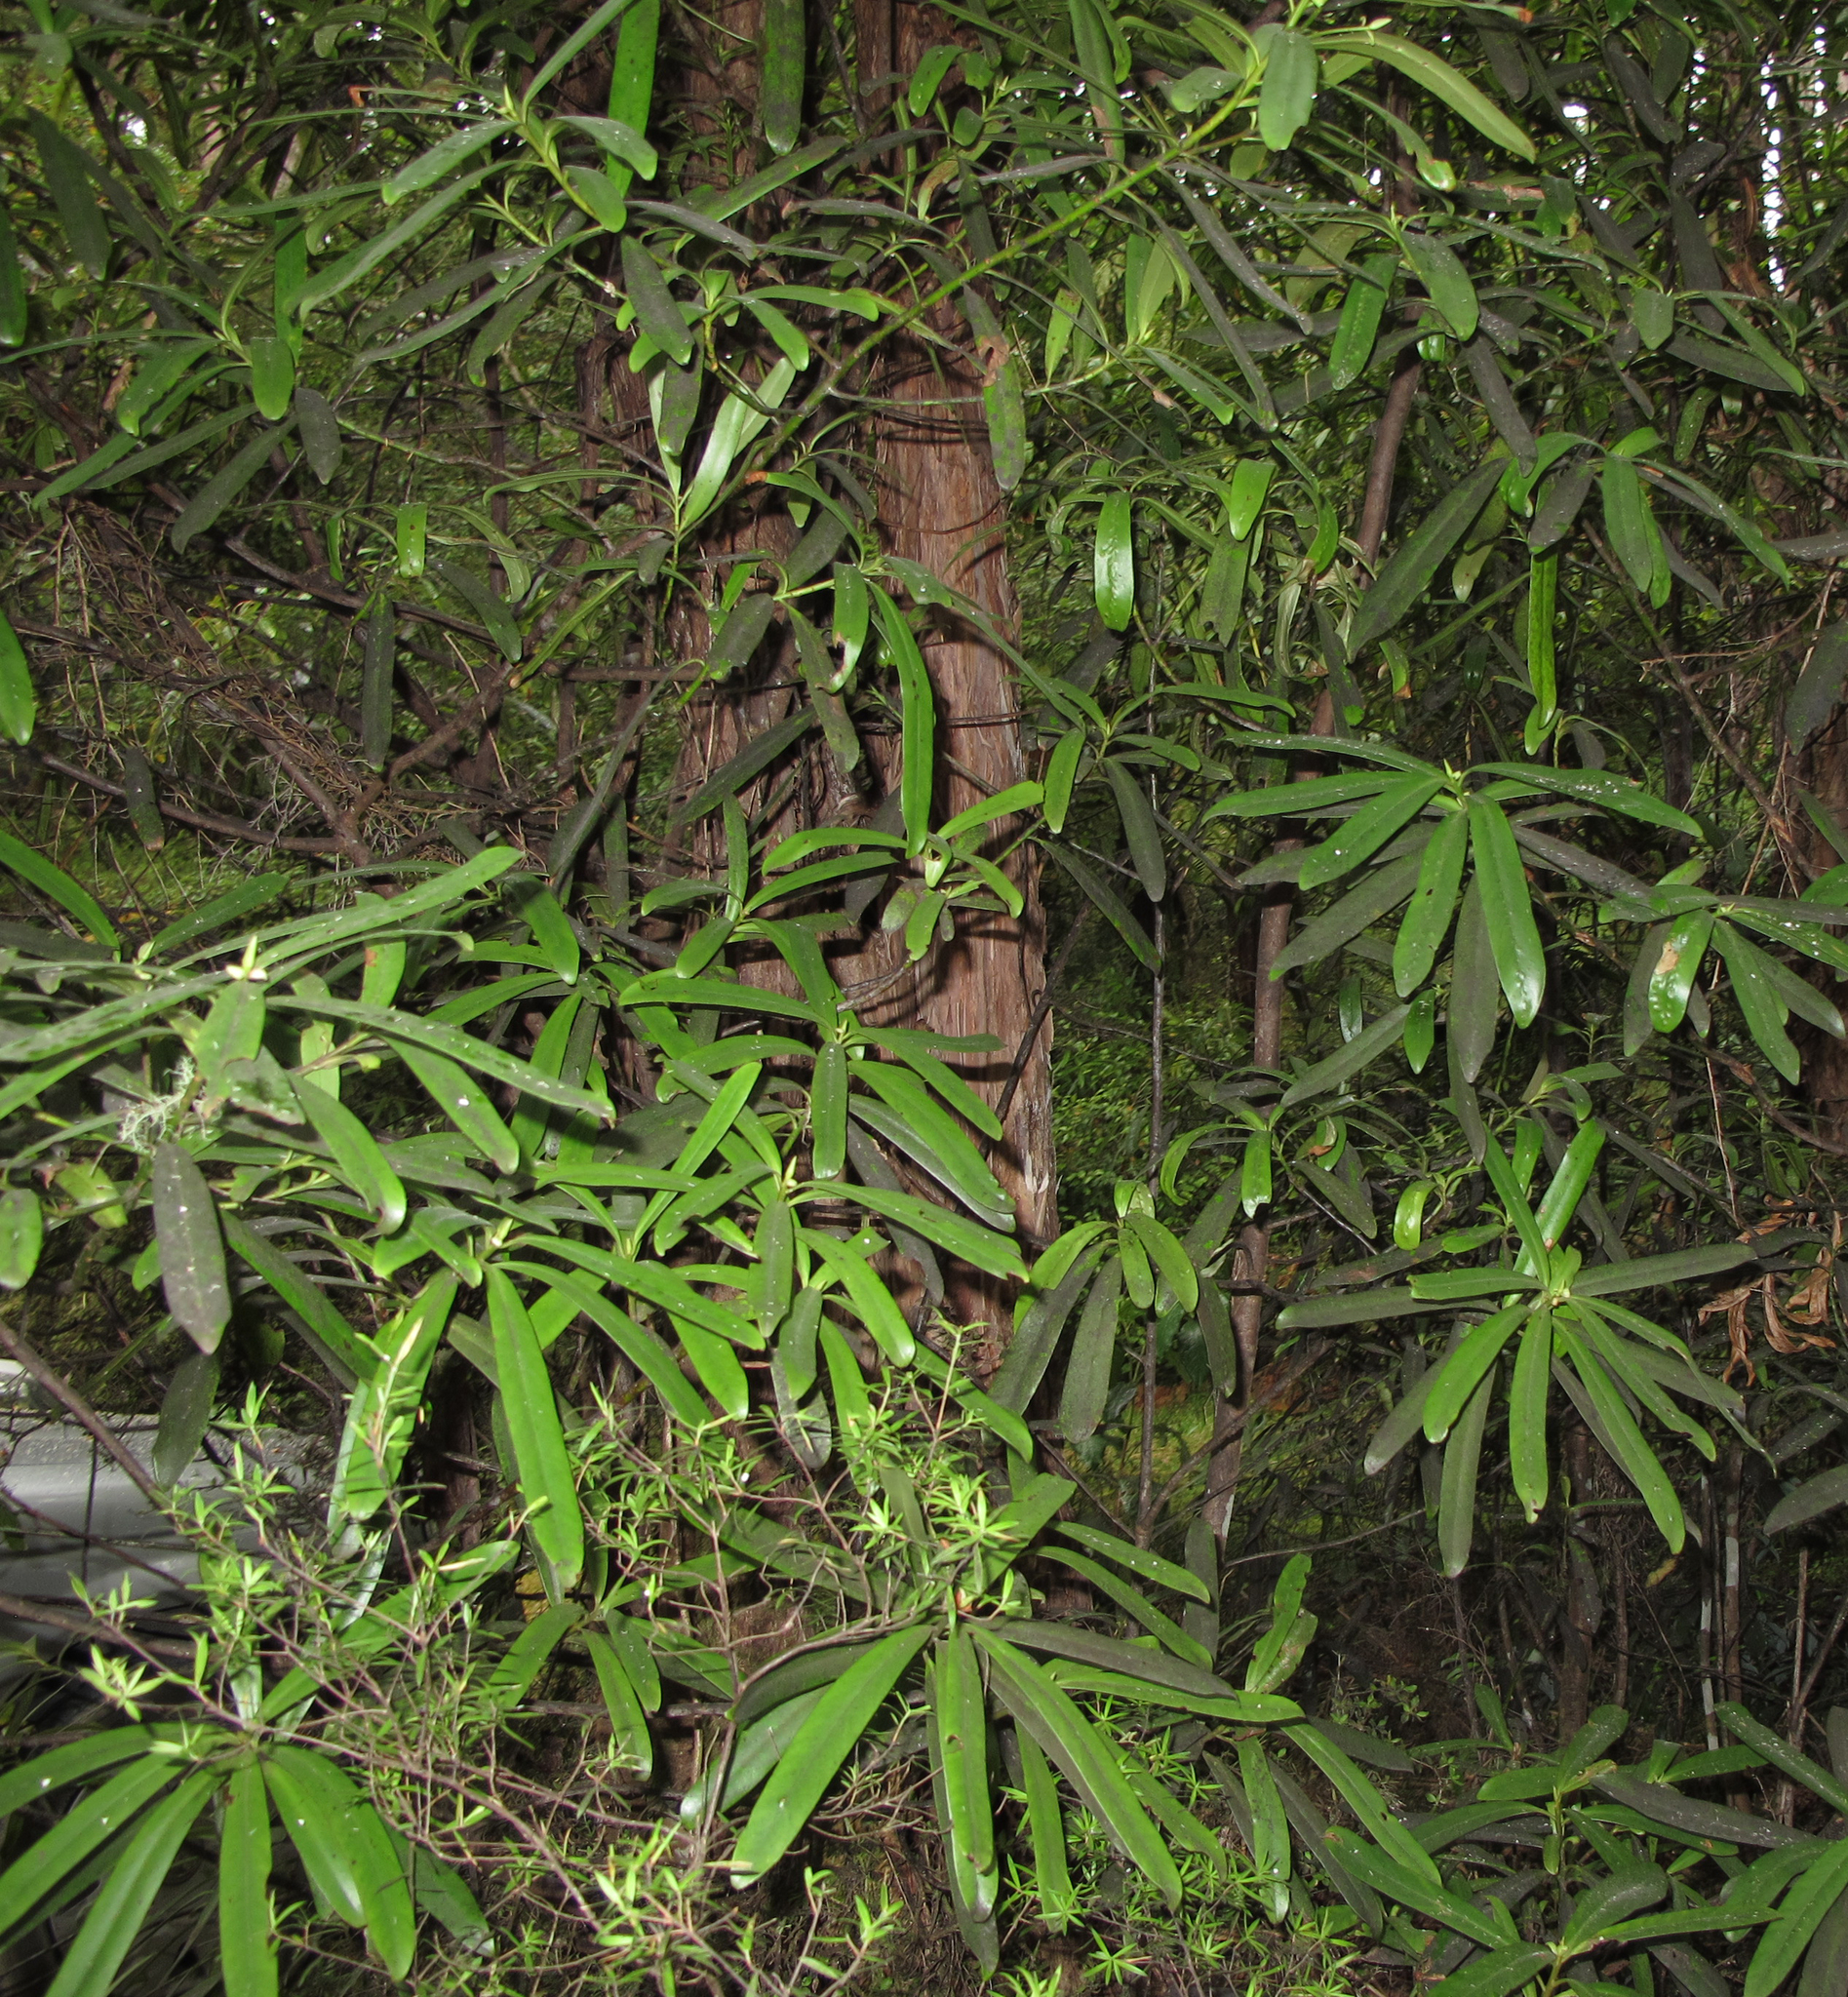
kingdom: Plantae
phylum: Tracheophyta
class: Magnoliopsida
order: Ericales
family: Primulaceae
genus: Myrsine
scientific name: Myrsine salicina
